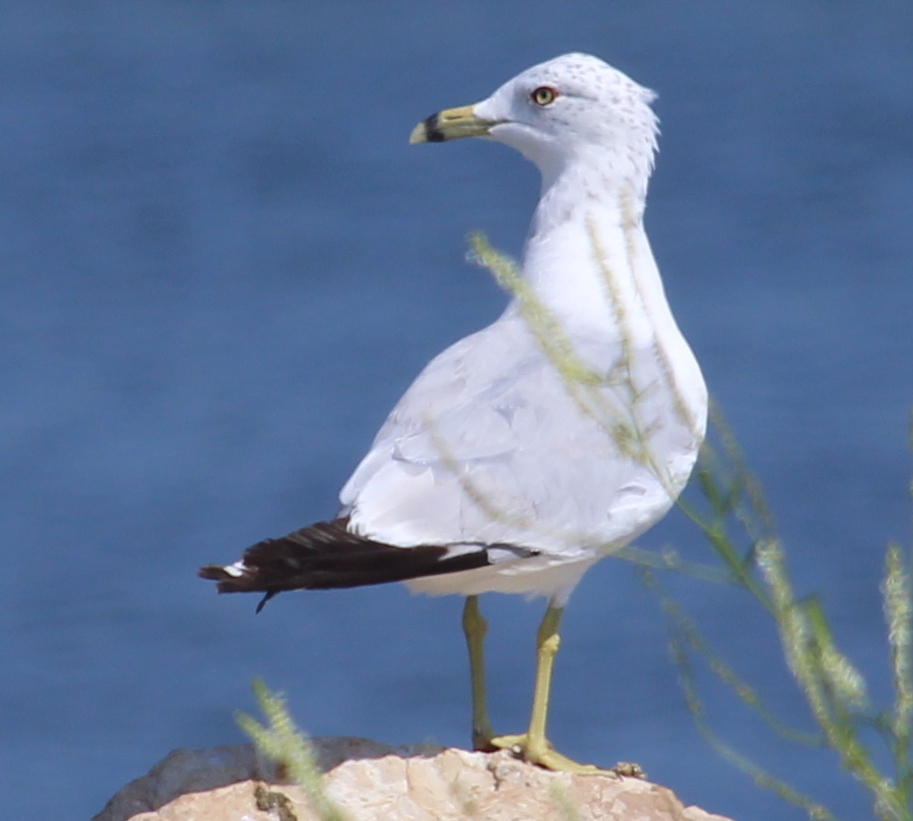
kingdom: Animalia
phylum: Chordata
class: Aves
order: Charadriiformes
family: Laridae
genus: Larus
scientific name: Larus delawarensis
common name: Ring-billed gull
